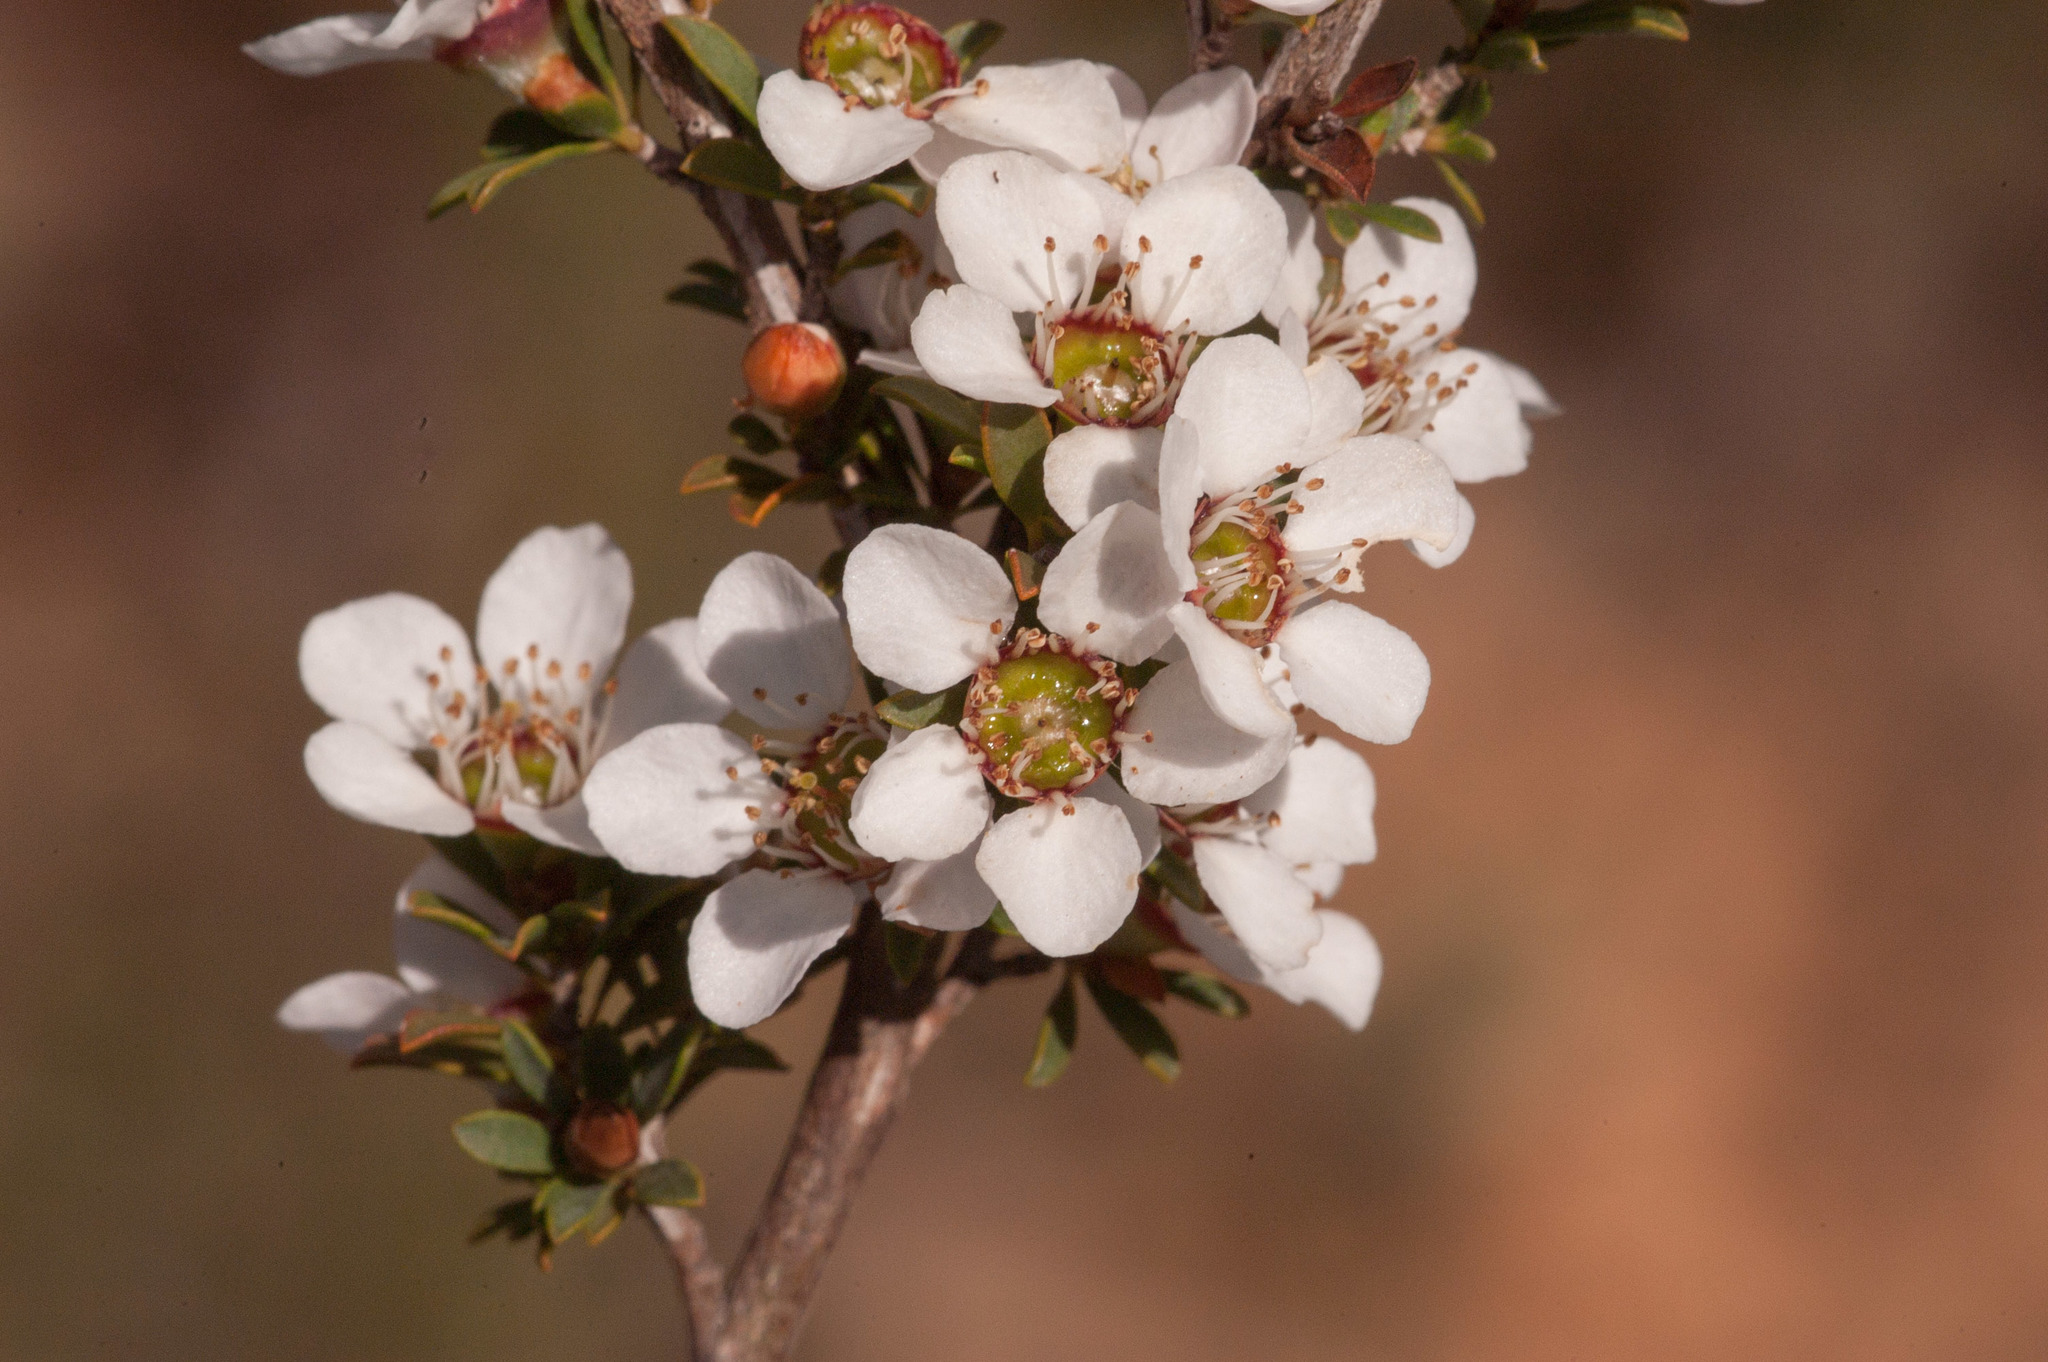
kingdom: Plantae
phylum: Tracheophyta
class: Magnoliopsida
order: Myrtales
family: Myrtaceae
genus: Leptospermum
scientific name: Leptospermum myrsinoides
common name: Heath teatree
